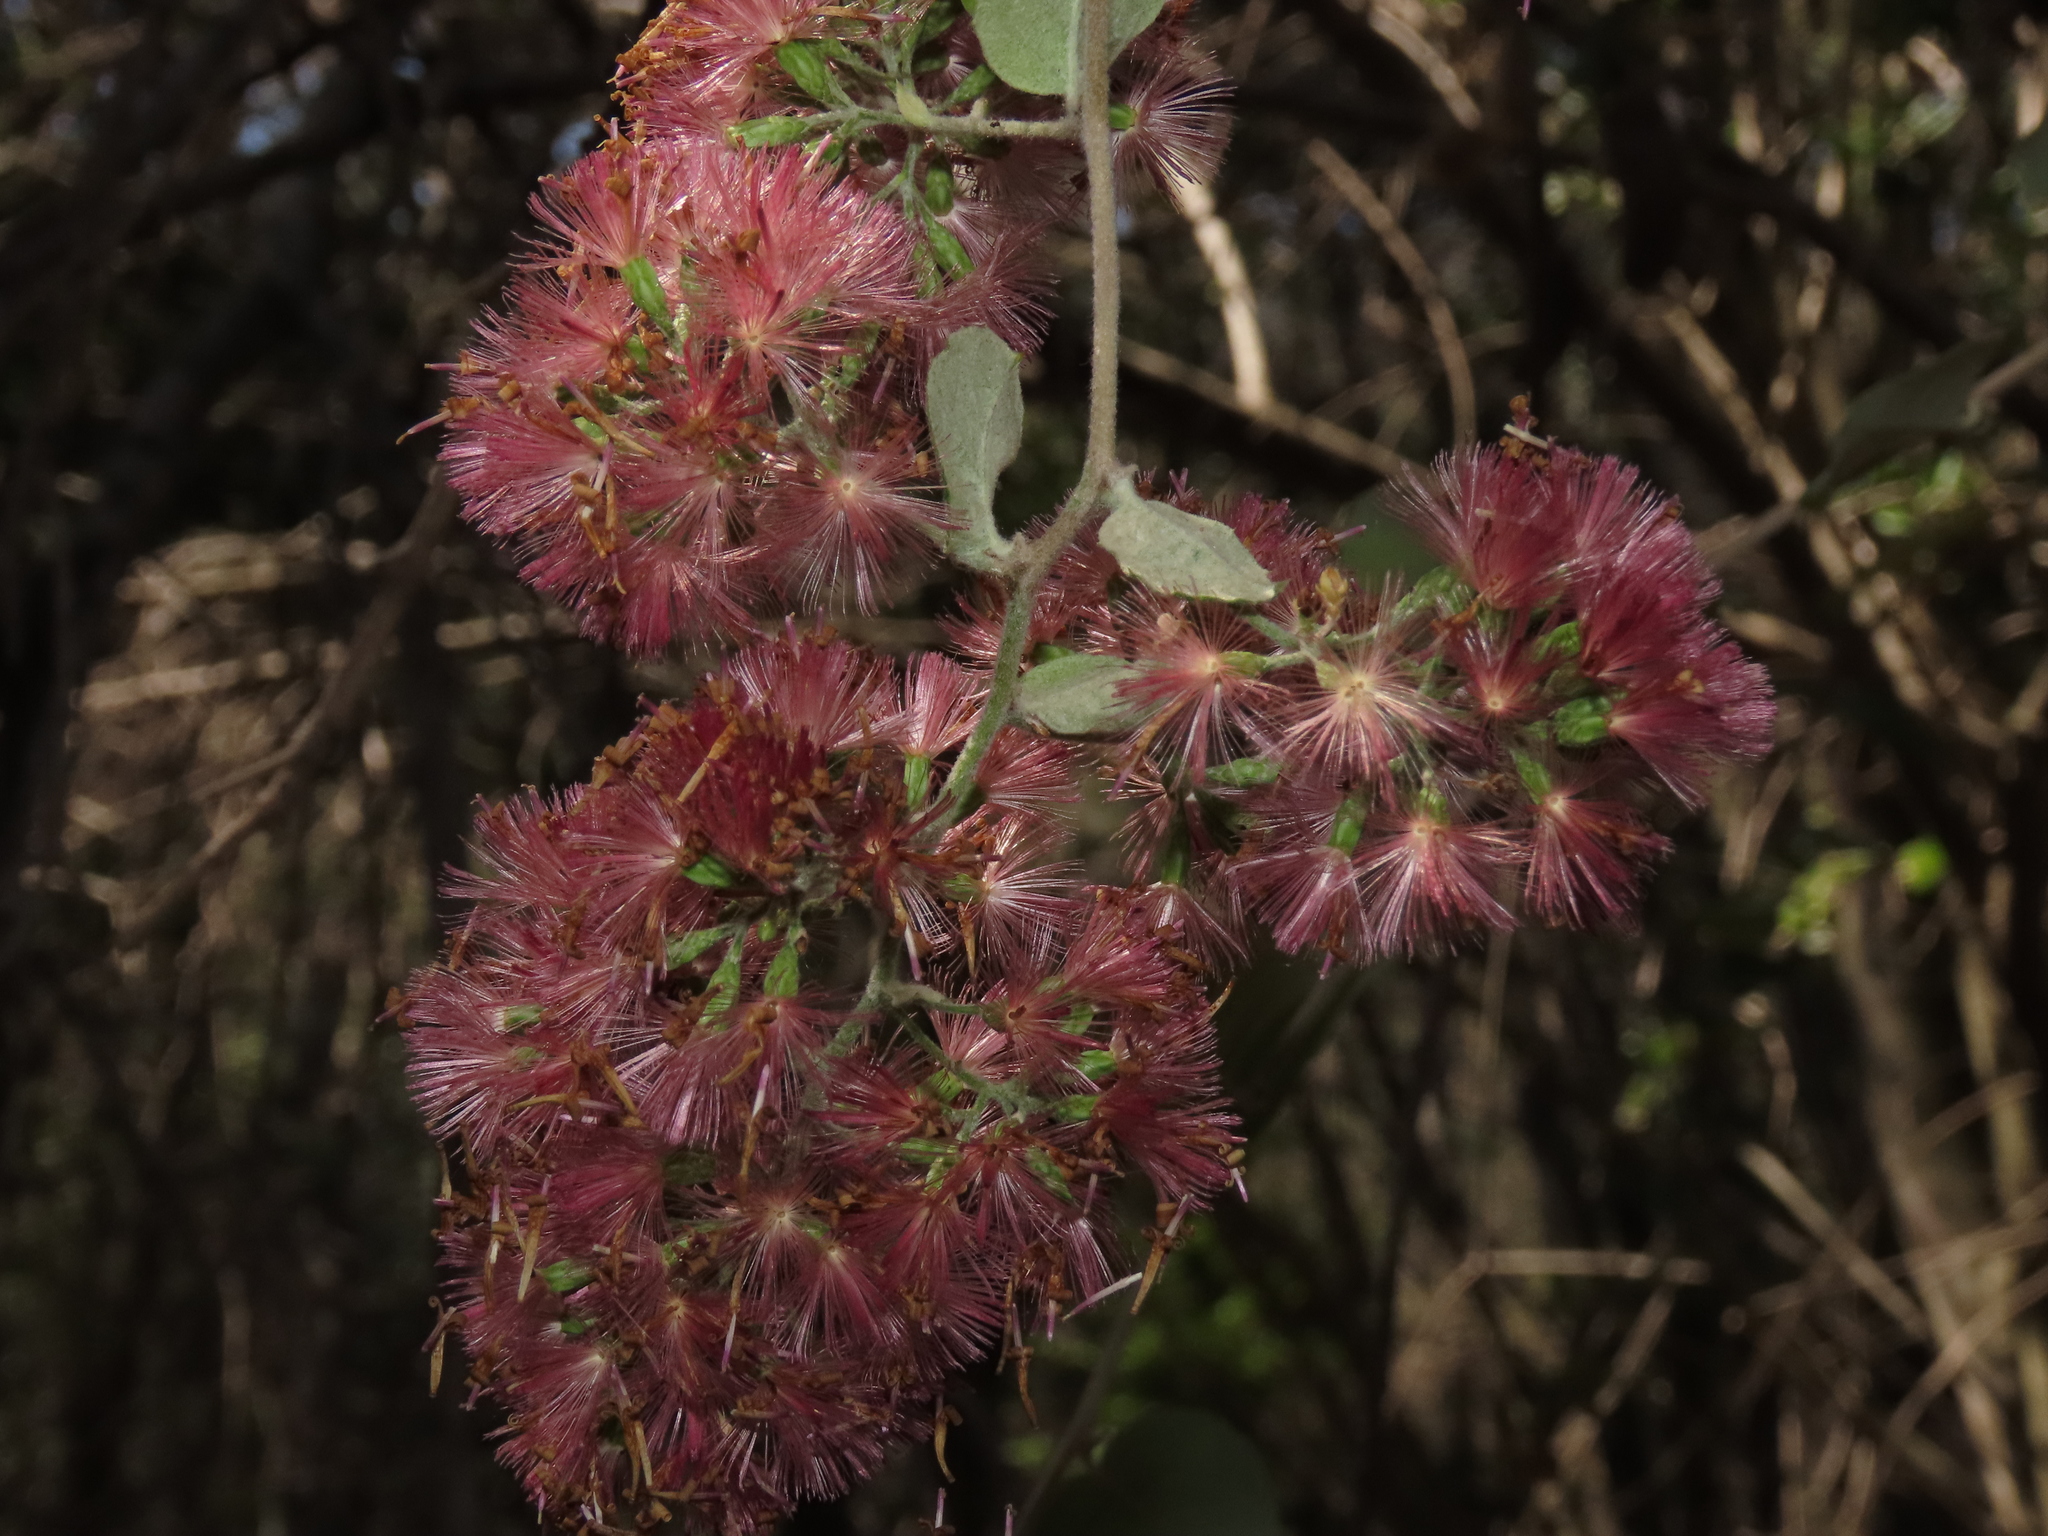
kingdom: Plantae
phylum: Tracheophyta
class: Magnoliopsida
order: Asterales
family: Asteraceae
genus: Proustia
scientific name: Proustia pyrifolia
